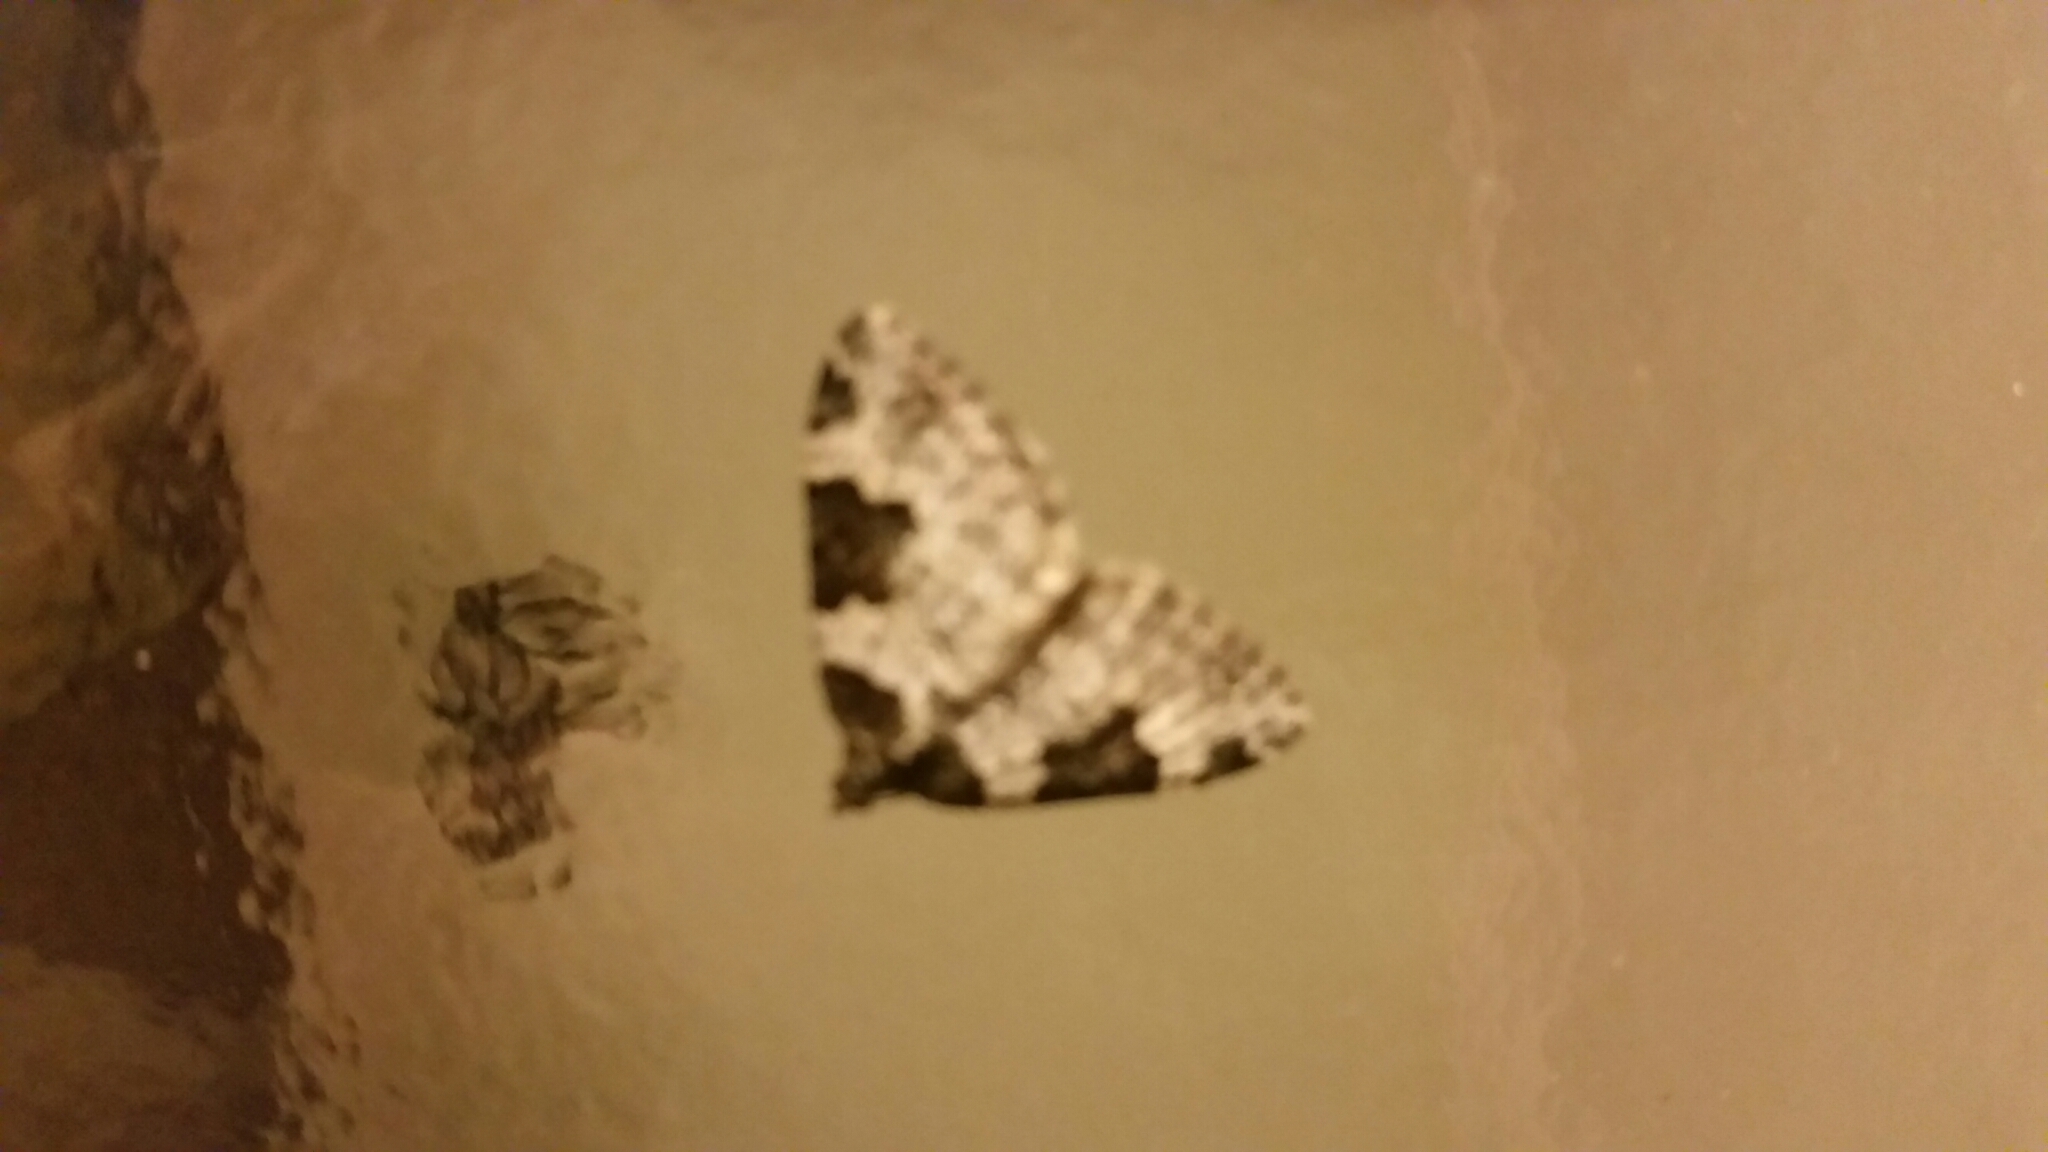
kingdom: Animalia
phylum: Arthropoda
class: Insecta
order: Lepidoptera
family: Geometridae
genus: Xanthorhoe
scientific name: Xanthorhoe fluctuata
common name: Garden carpet
